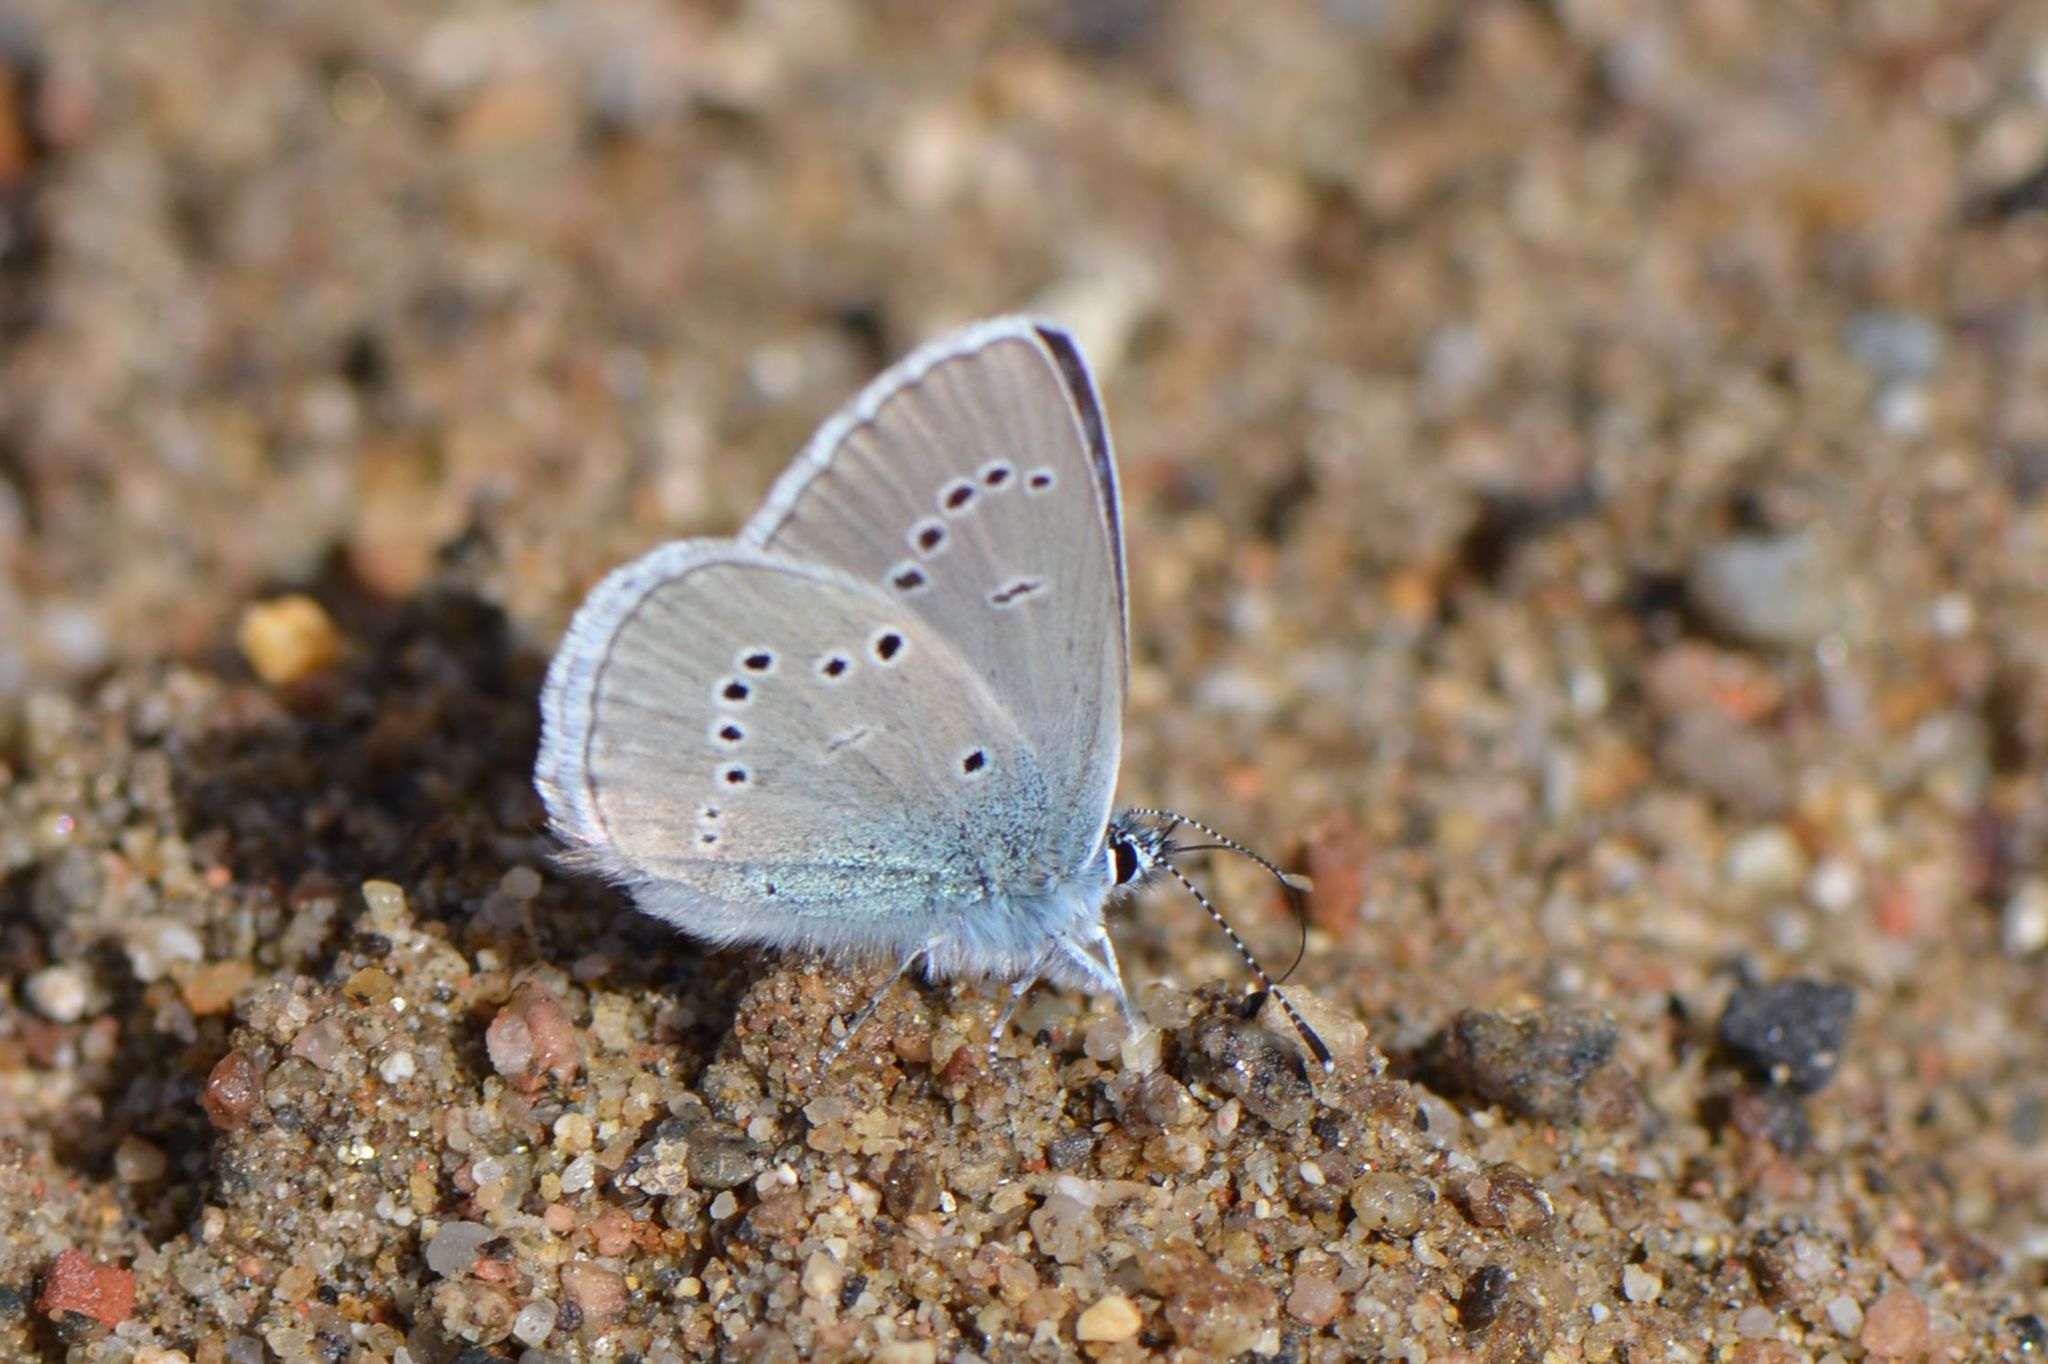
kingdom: Animalia
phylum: Arthropoda
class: Insecta
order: Lepidoptera
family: Lycaenidae
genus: Cyaniris
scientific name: Cyaniris semiargus
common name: Mazarine blue
